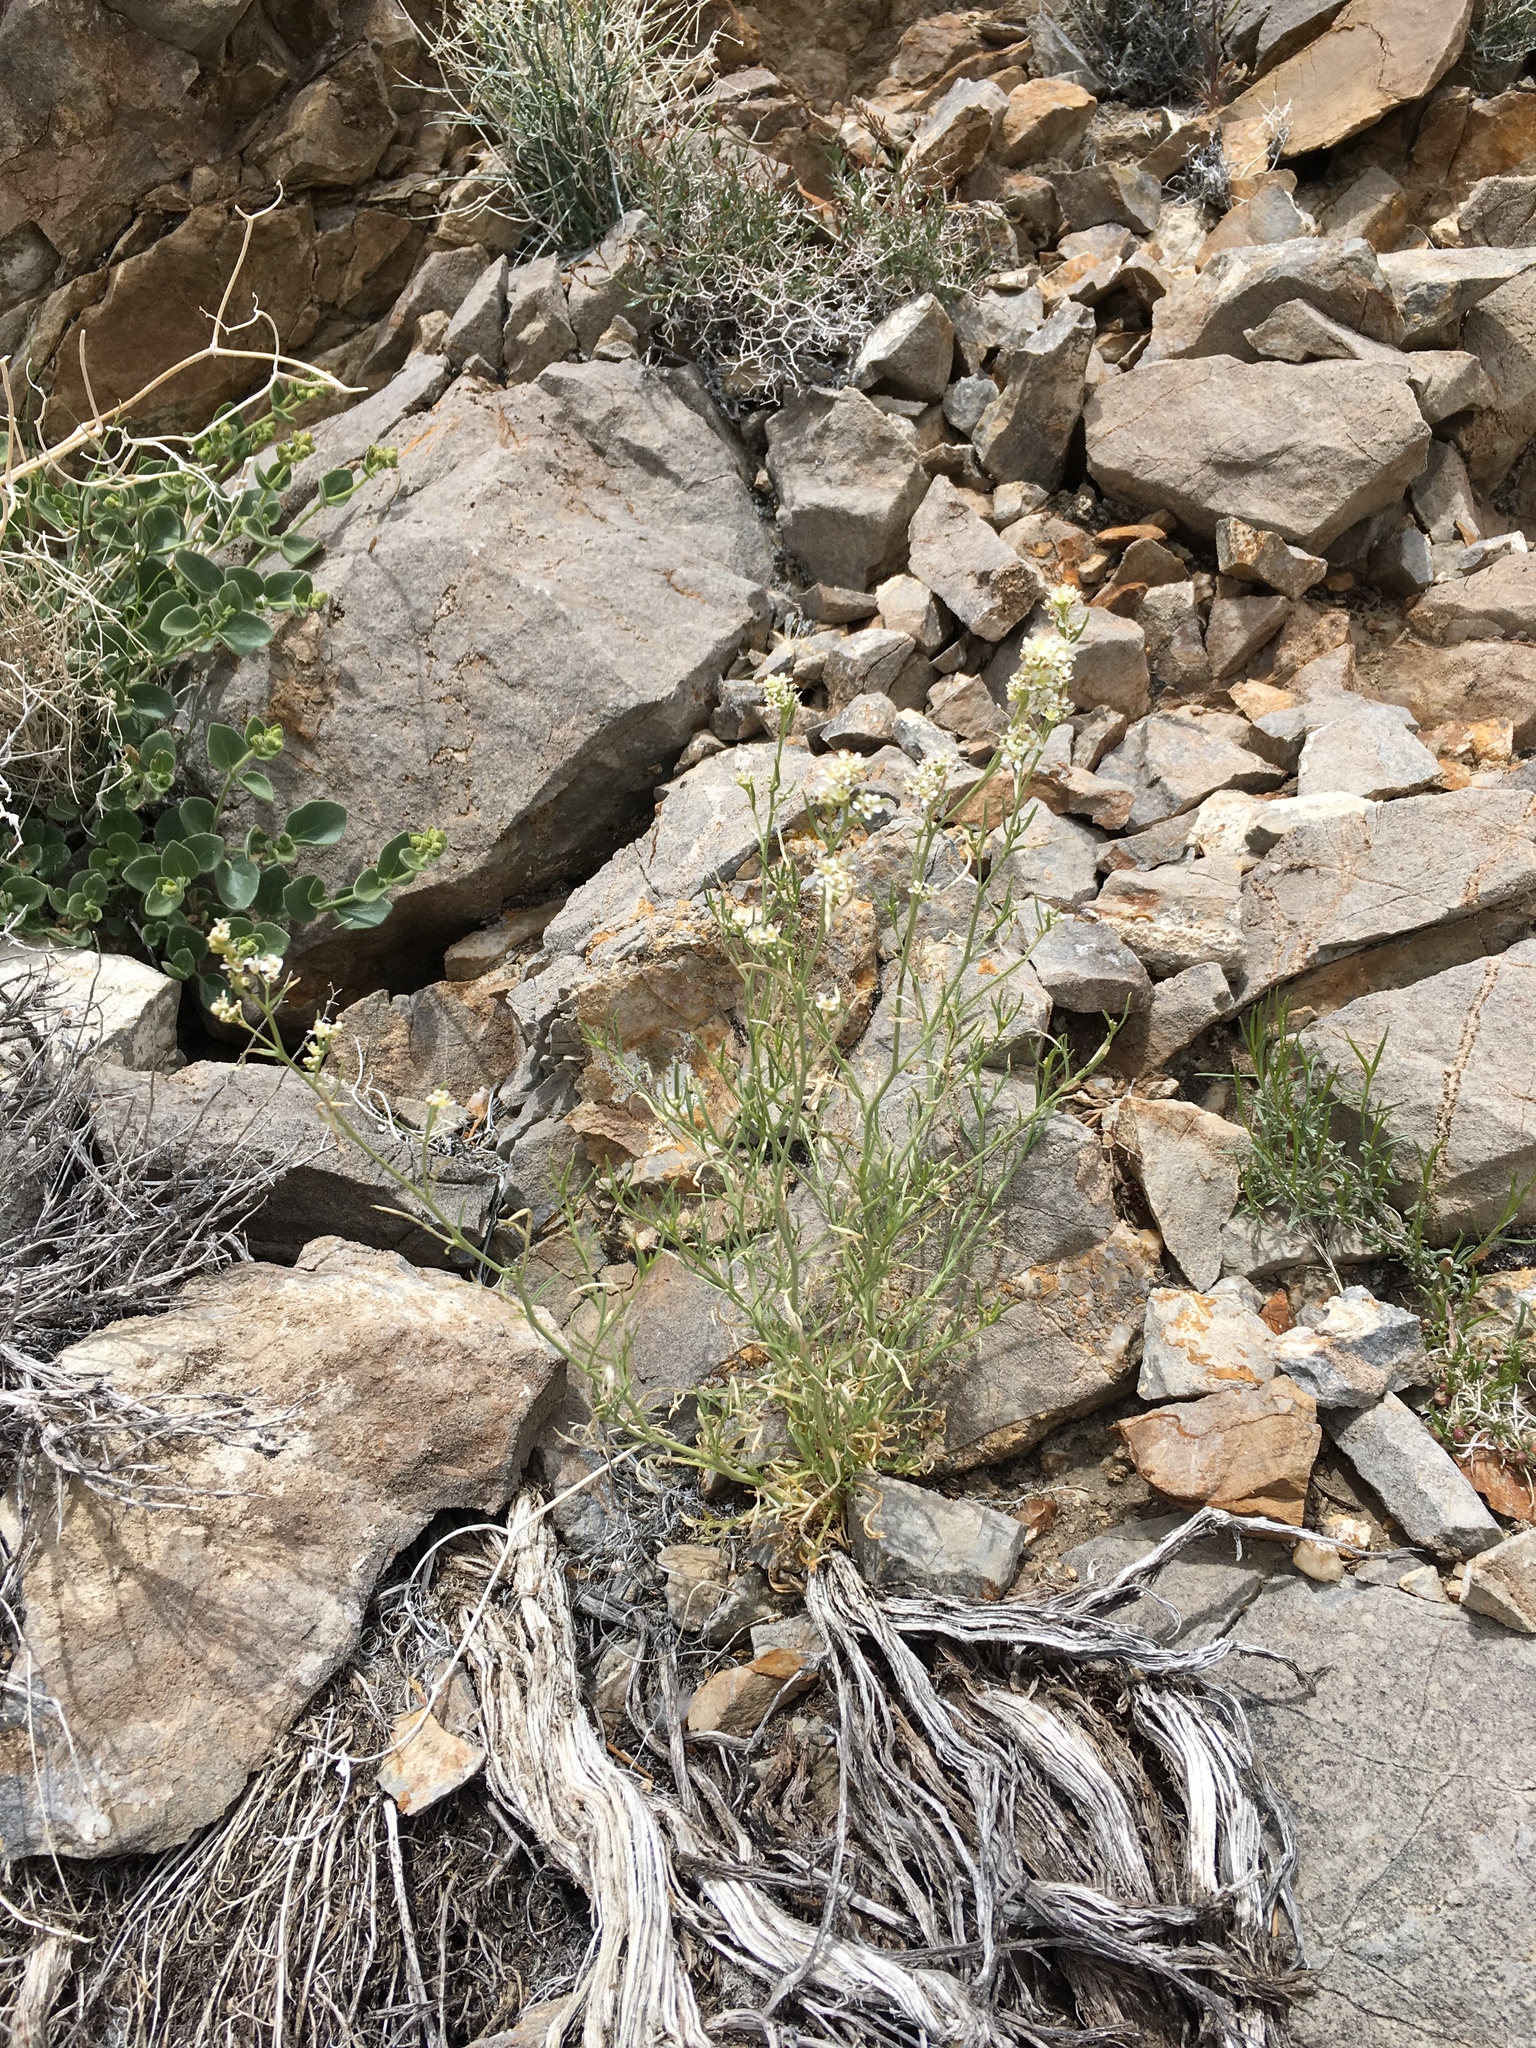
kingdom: Plantae
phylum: Tracheophyta
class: Magnoliopsida
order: Brassicales
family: Brassicaceae
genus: Lepidium
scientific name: Lepidium fremontii
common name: Fremont's pepperwort
